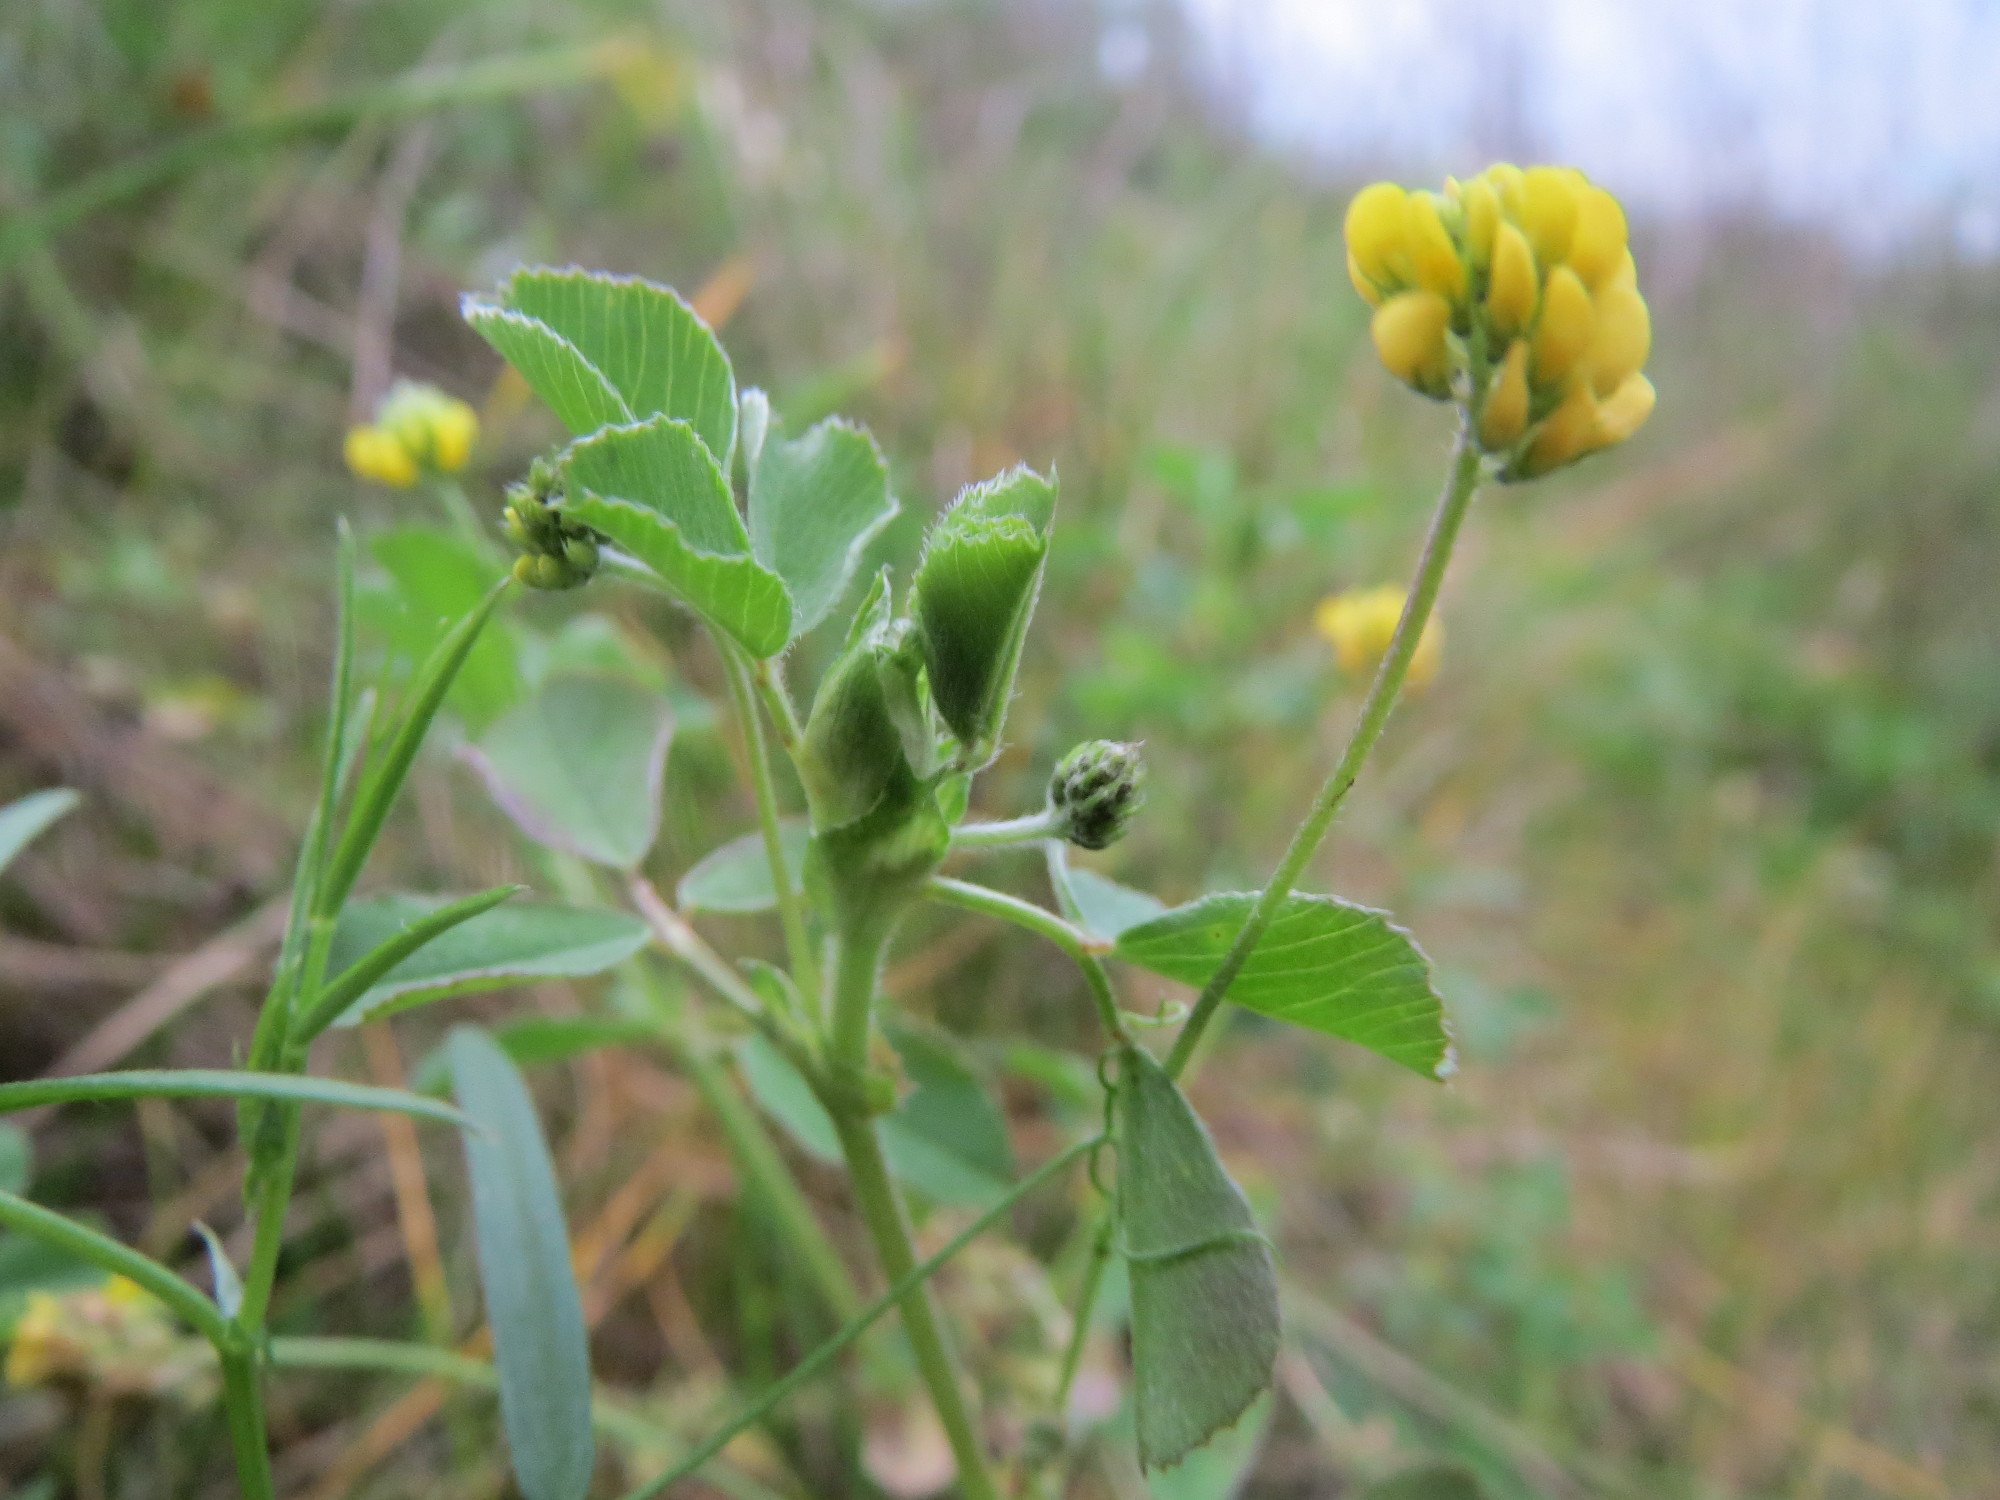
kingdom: Plantae
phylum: Tracheophyta
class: Magnoliopsida
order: Fabales
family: Fabaceae
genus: Medicago
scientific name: Medicago lupulina
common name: Black medick
